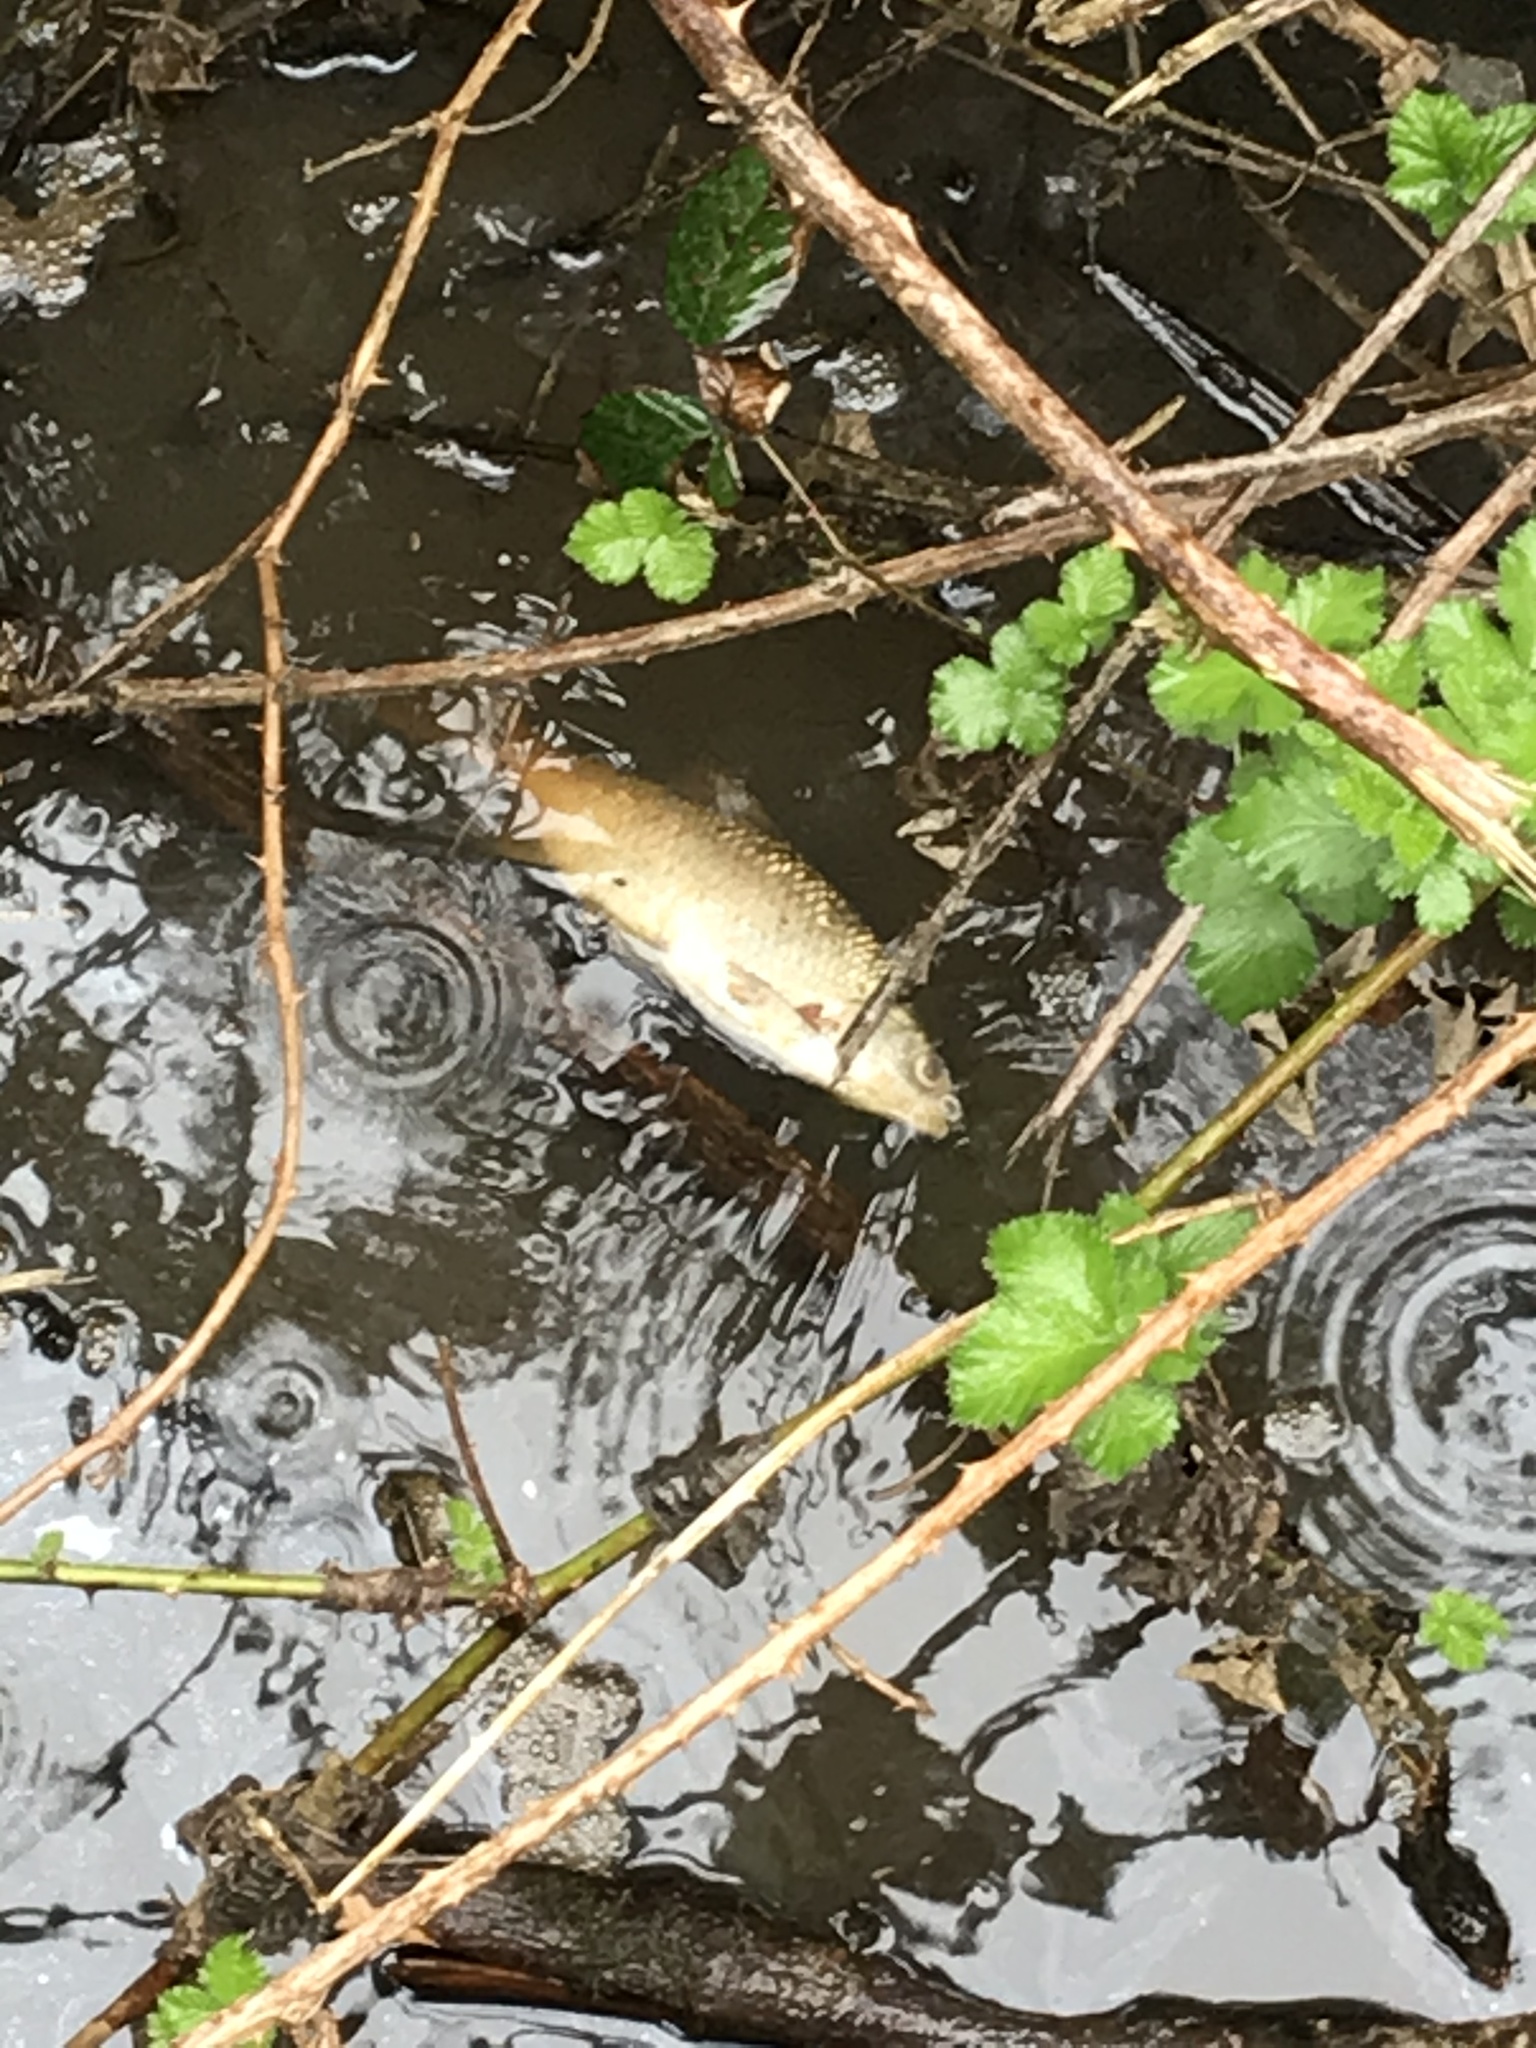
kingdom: Animalia
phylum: Chordata
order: Cypriniformes
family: Cyprinidae
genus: Rutilus
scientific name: Rutilus rutilus
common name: Roach
